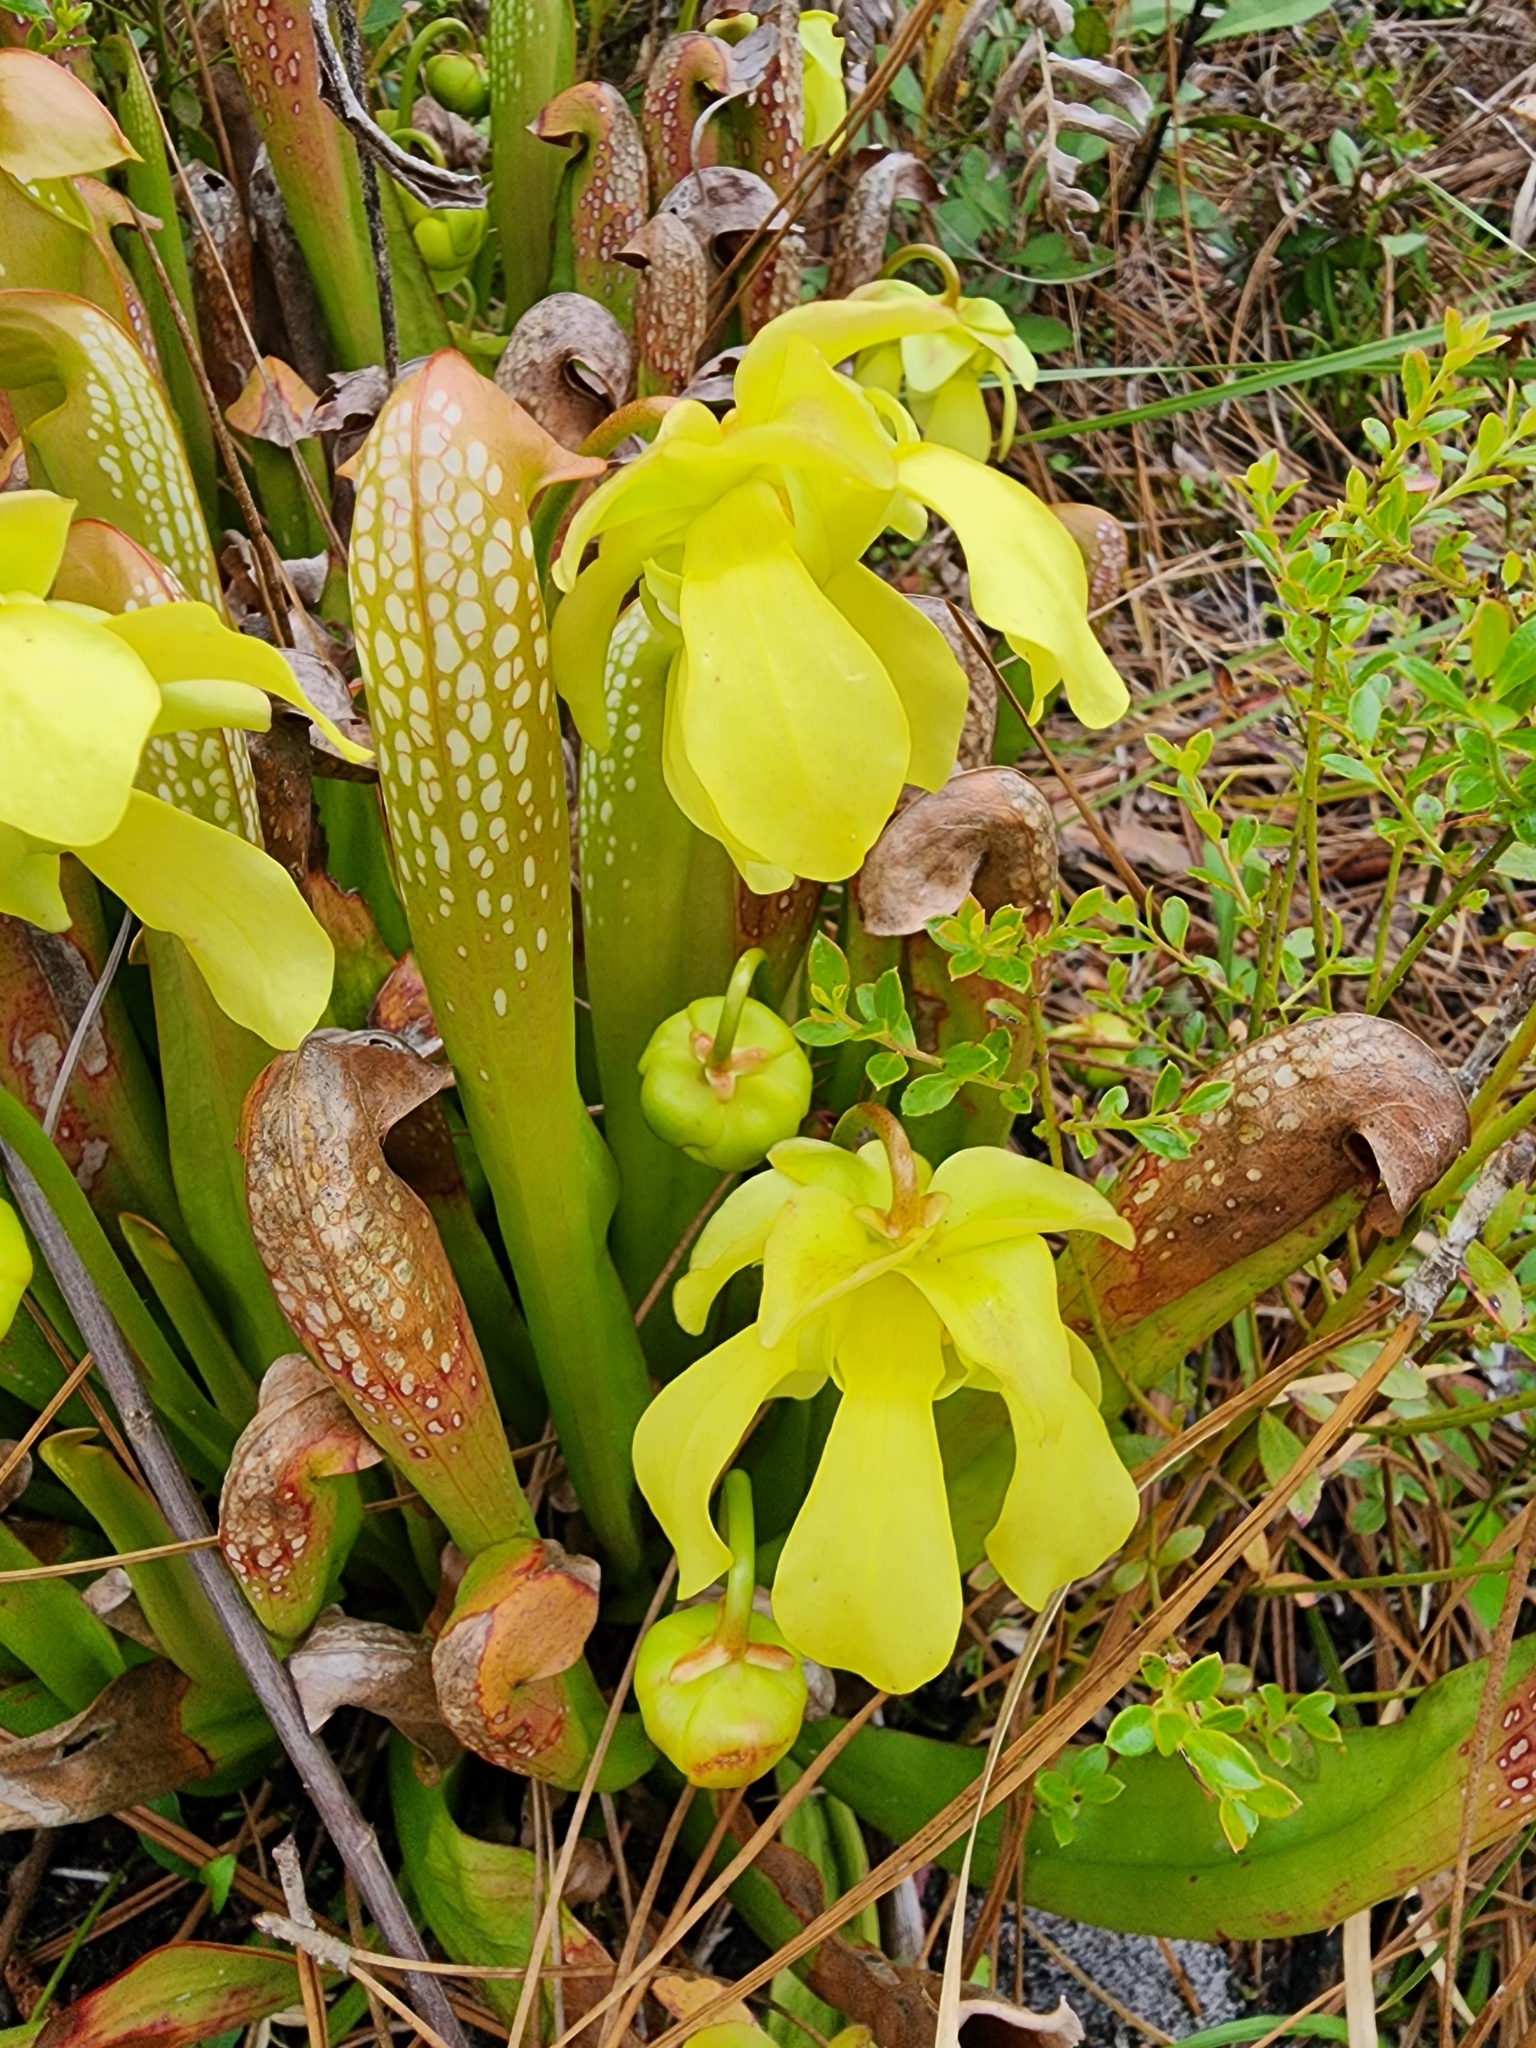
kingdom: Plantae
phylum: Tracheophyta
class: Magnoliopsida
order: Ericales
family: Sarraceniaceae
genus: Sarracenia
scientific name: Sarracenia minor
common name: Rainhat-trumpet
